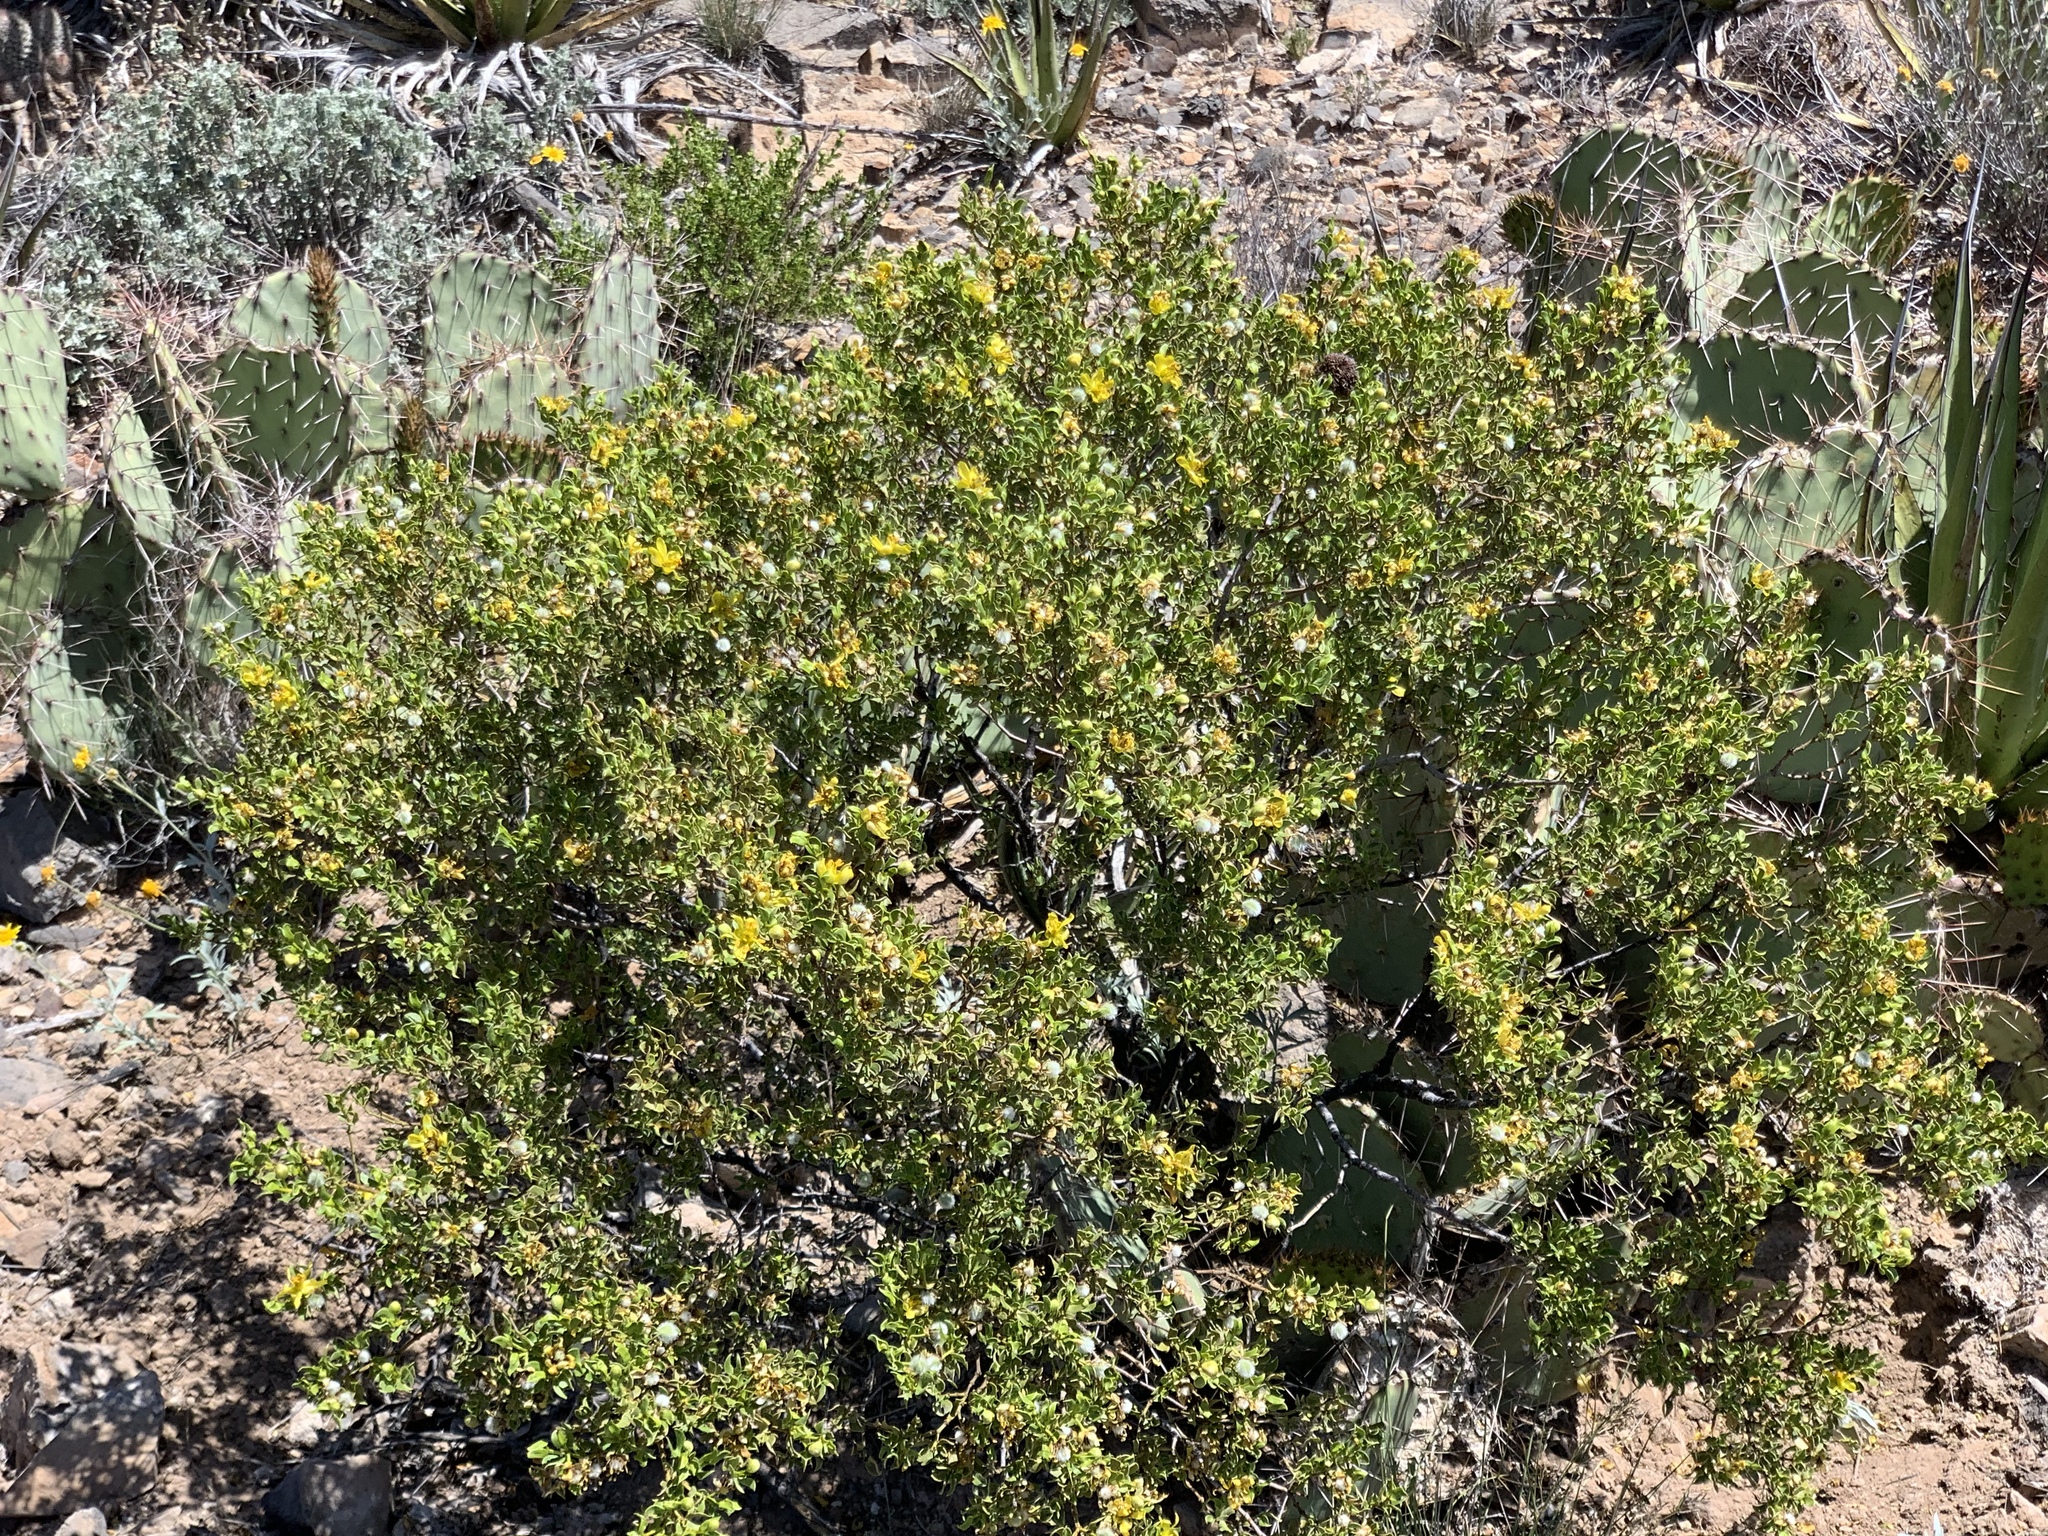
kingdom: Plantae
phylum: Tracheophyta
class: Magnoliopsida
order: Zygophyllales
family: Zygophyllaceae
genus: Larrea
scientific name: Larrea tridentata
